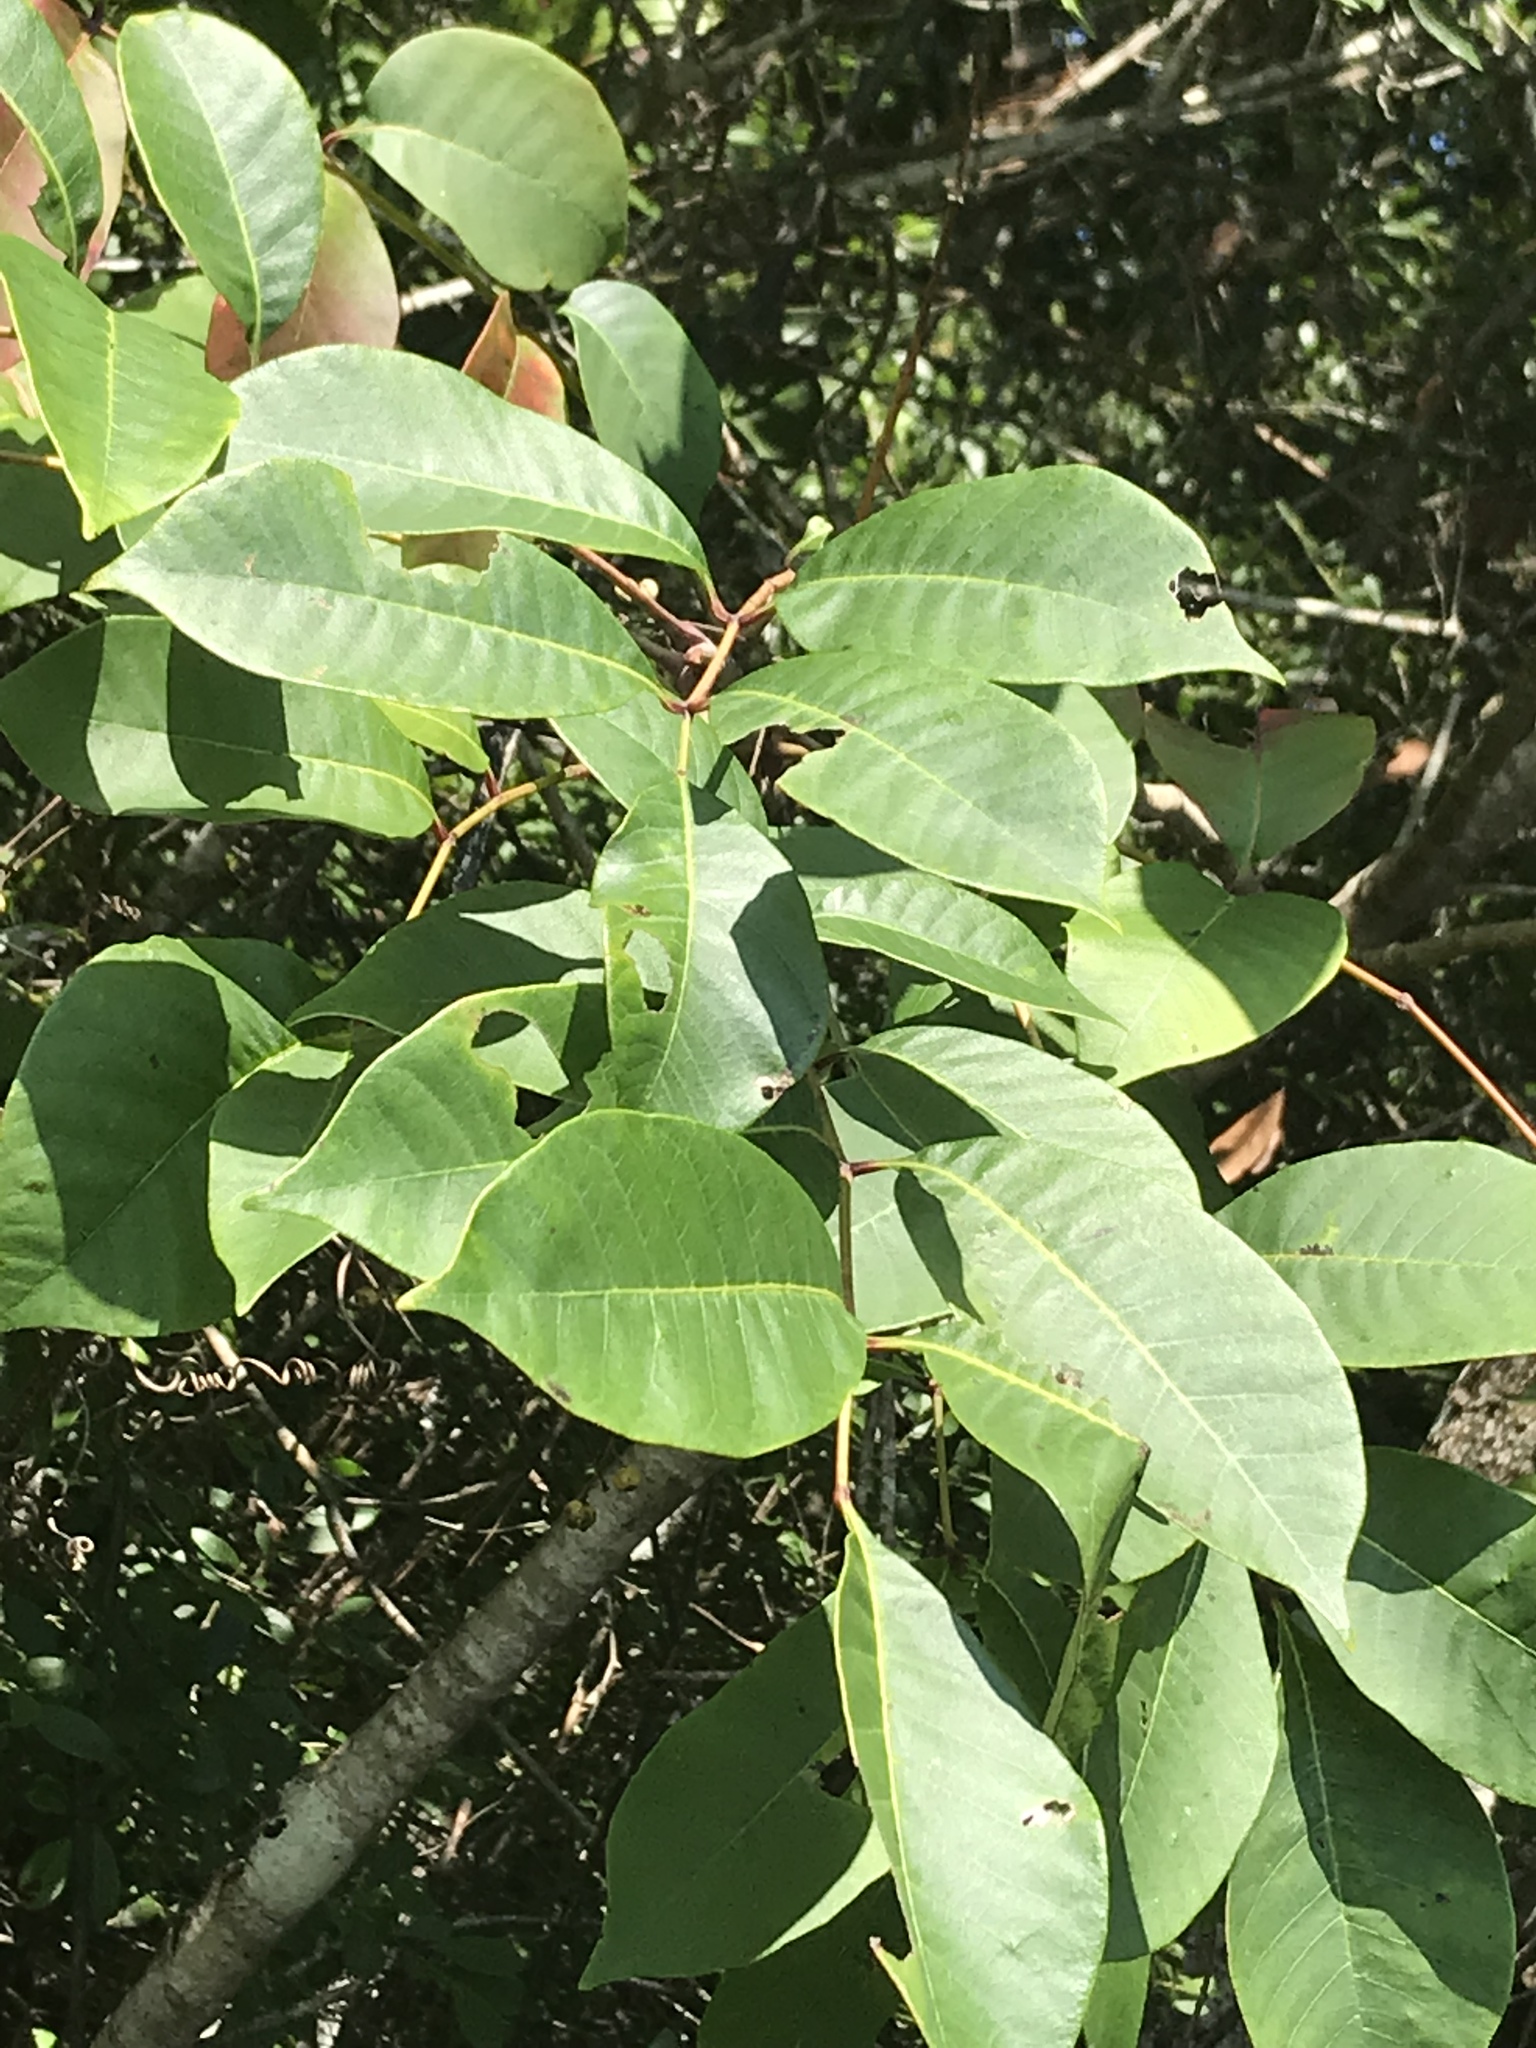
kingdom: Plantae
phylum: Tracheophyta
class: Magnoliopsida
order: Sapindales
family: Anacardiaceae
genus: Toxicodendron
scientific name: Toxicodendron vernix
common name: Poison sumac
